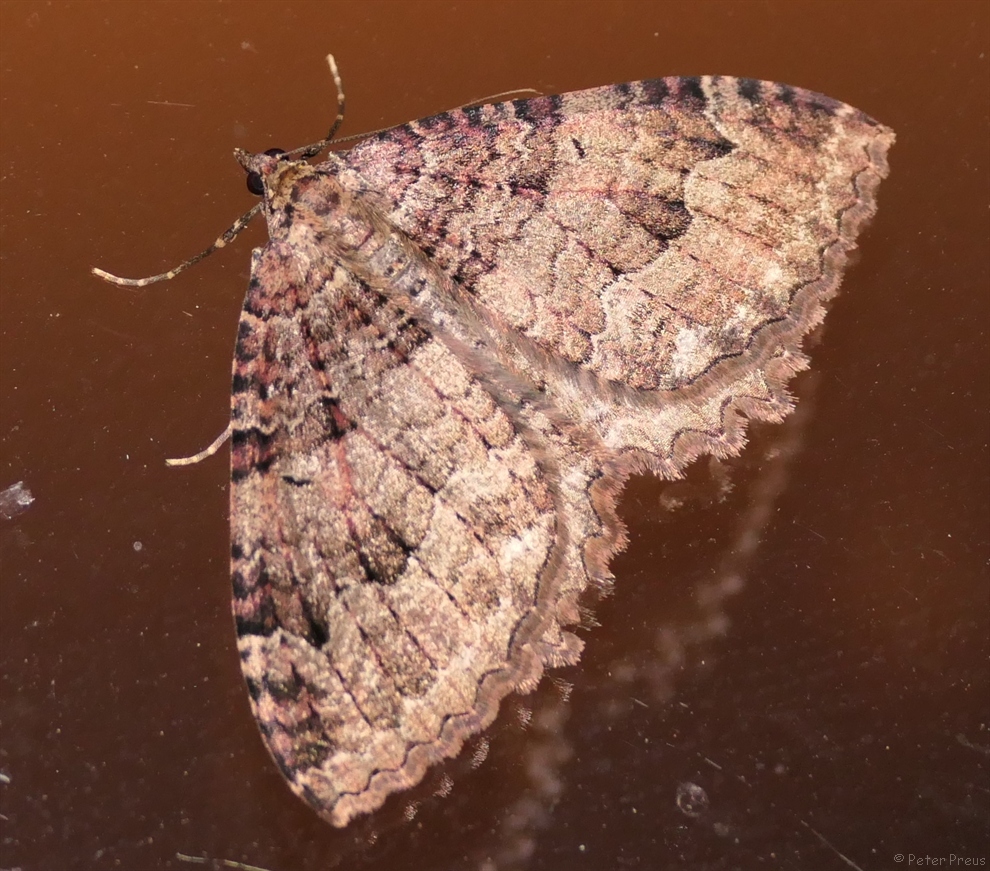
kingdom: Animalia
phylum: Arthropoda
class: Insecta
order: Lepidoptera
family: Geometridae
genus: Triphosa
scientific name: Triphosa dubitata
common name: Tissue
